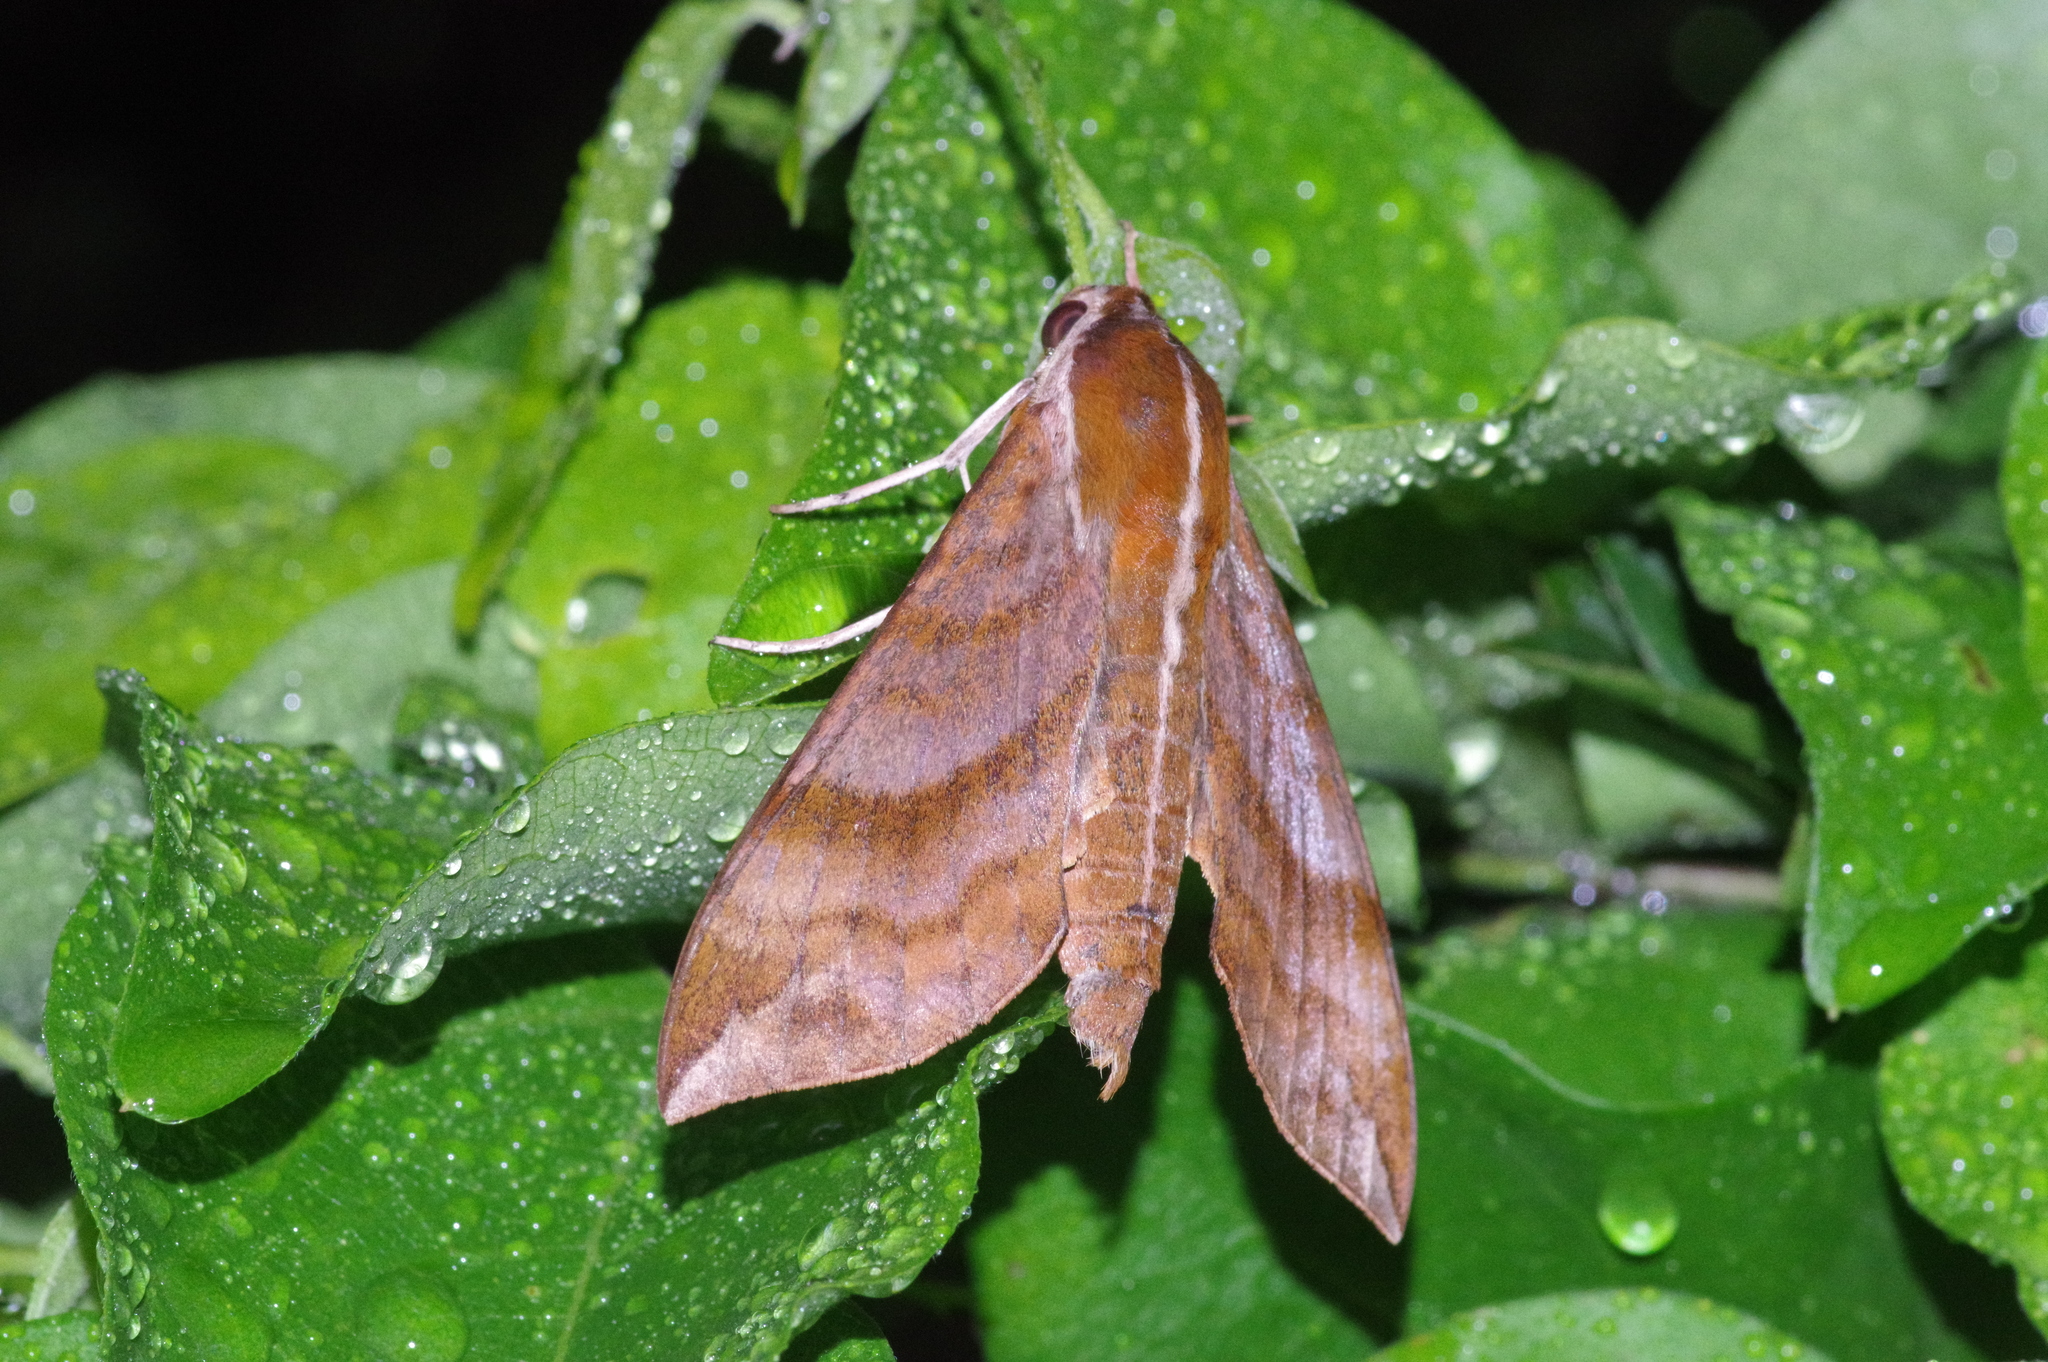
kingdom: Animalia
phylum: Arthropoda
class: Insecta
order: Lepidoptera
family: Sphingidae
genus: Ampelophaga
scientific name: Ampelophaga rubiginosa
